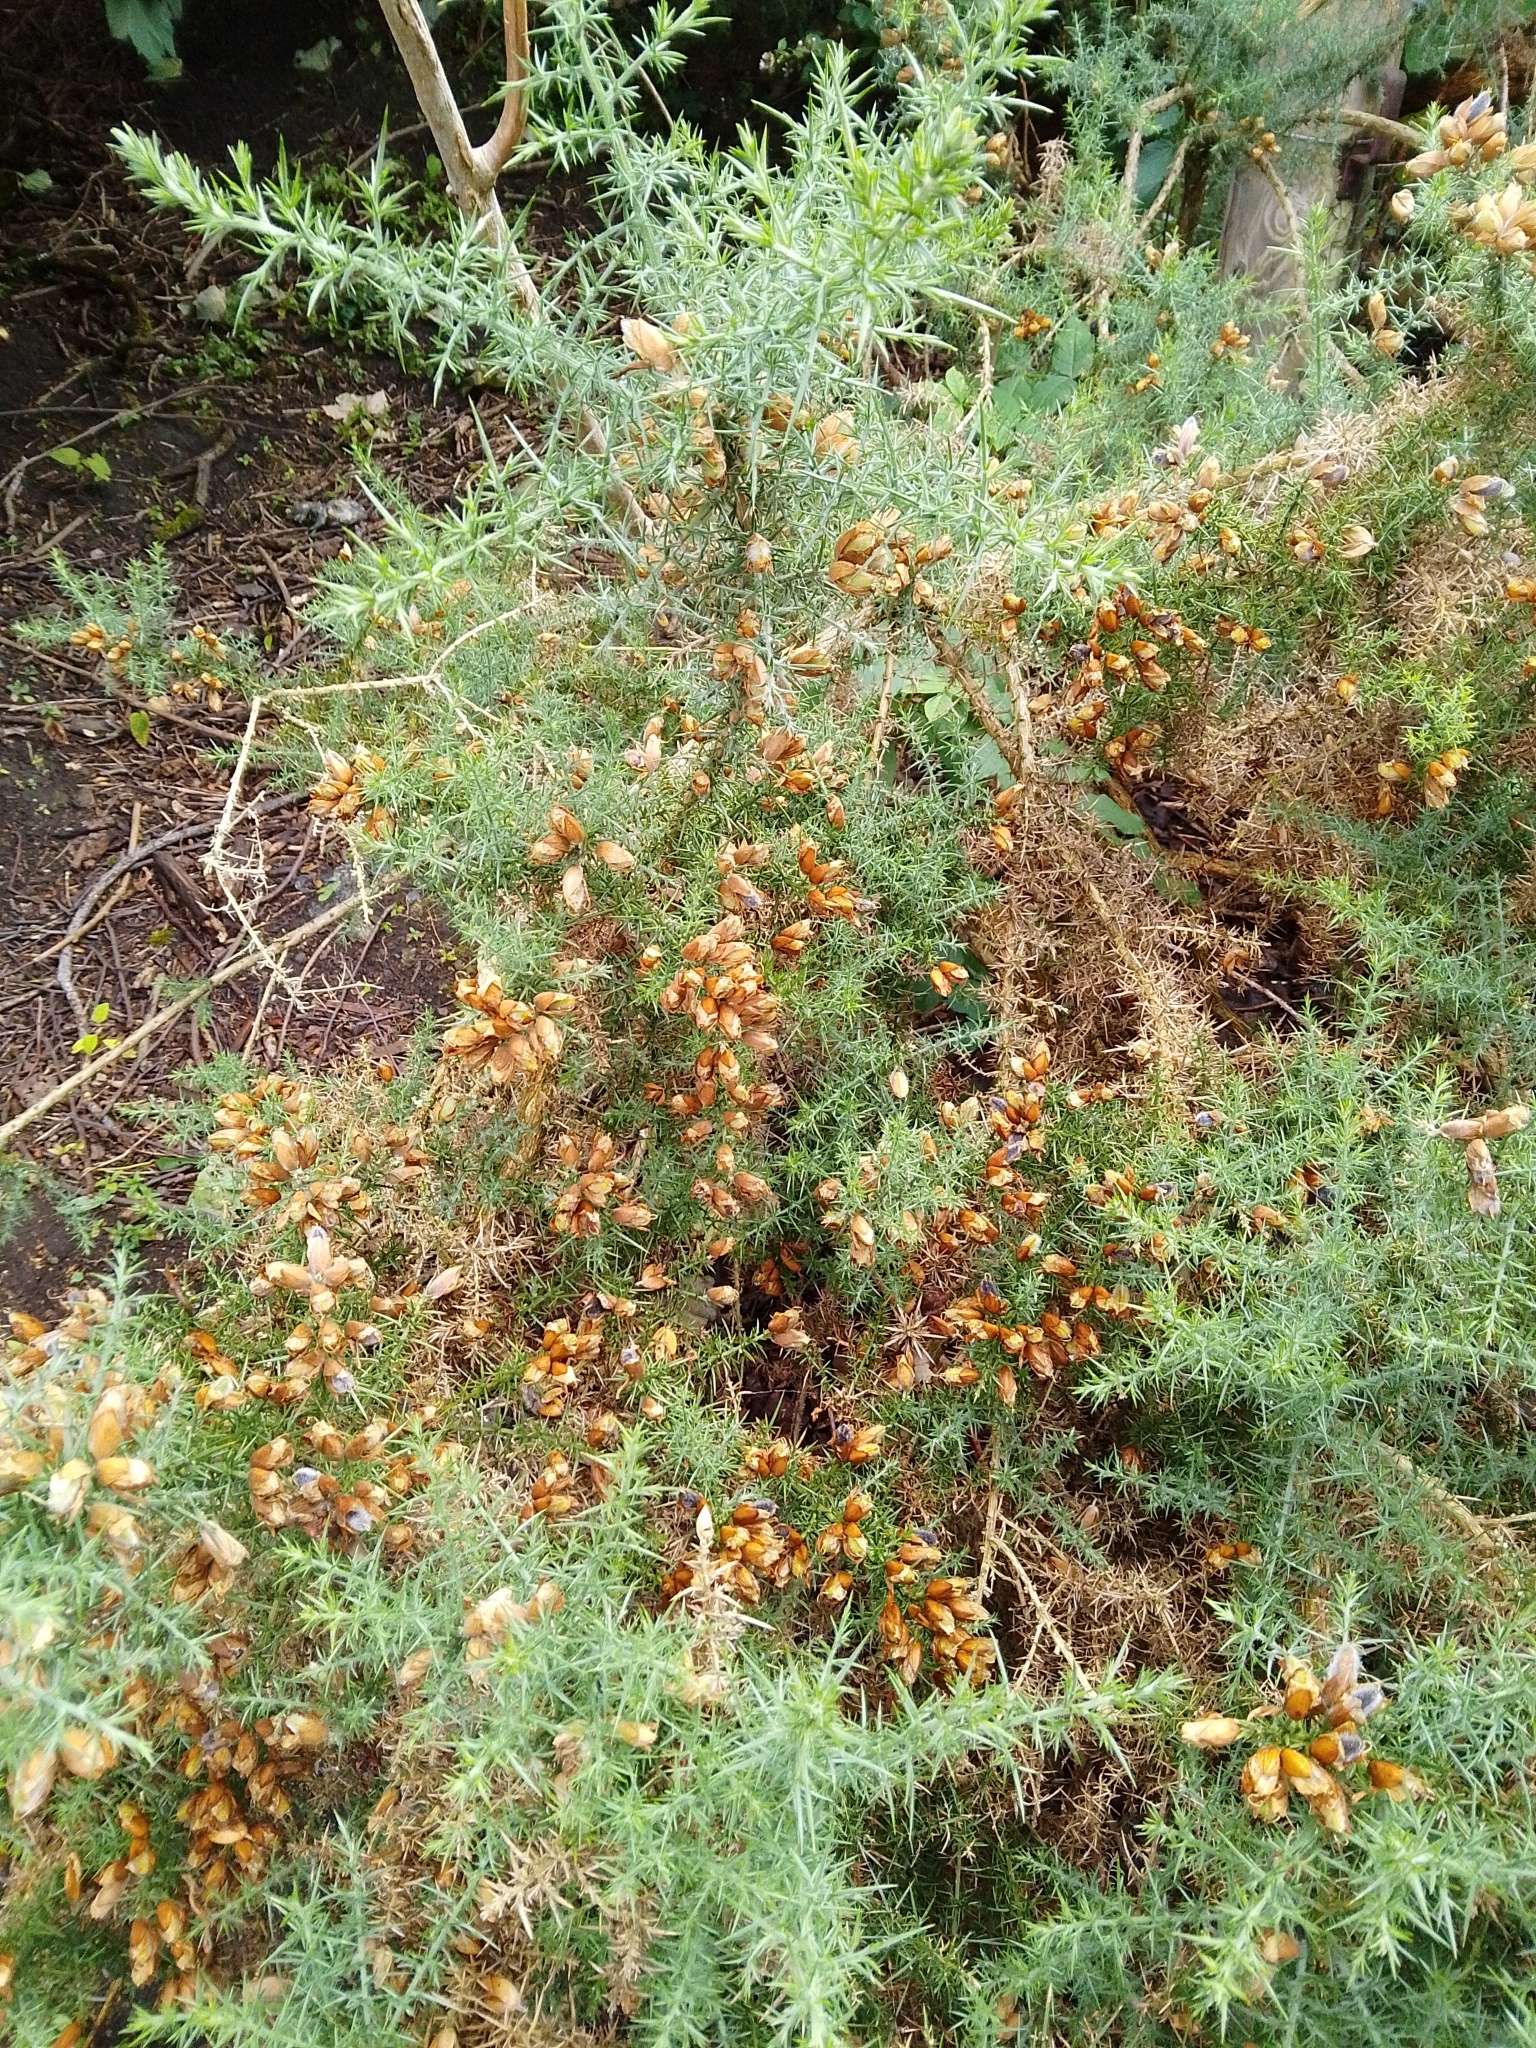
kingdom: Plantae
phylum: Tracheophyta
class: Magnoliopsida
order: Fabales
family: Fabaceae
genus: Ulex
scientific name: Ulex europaeus
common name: Common gorse
